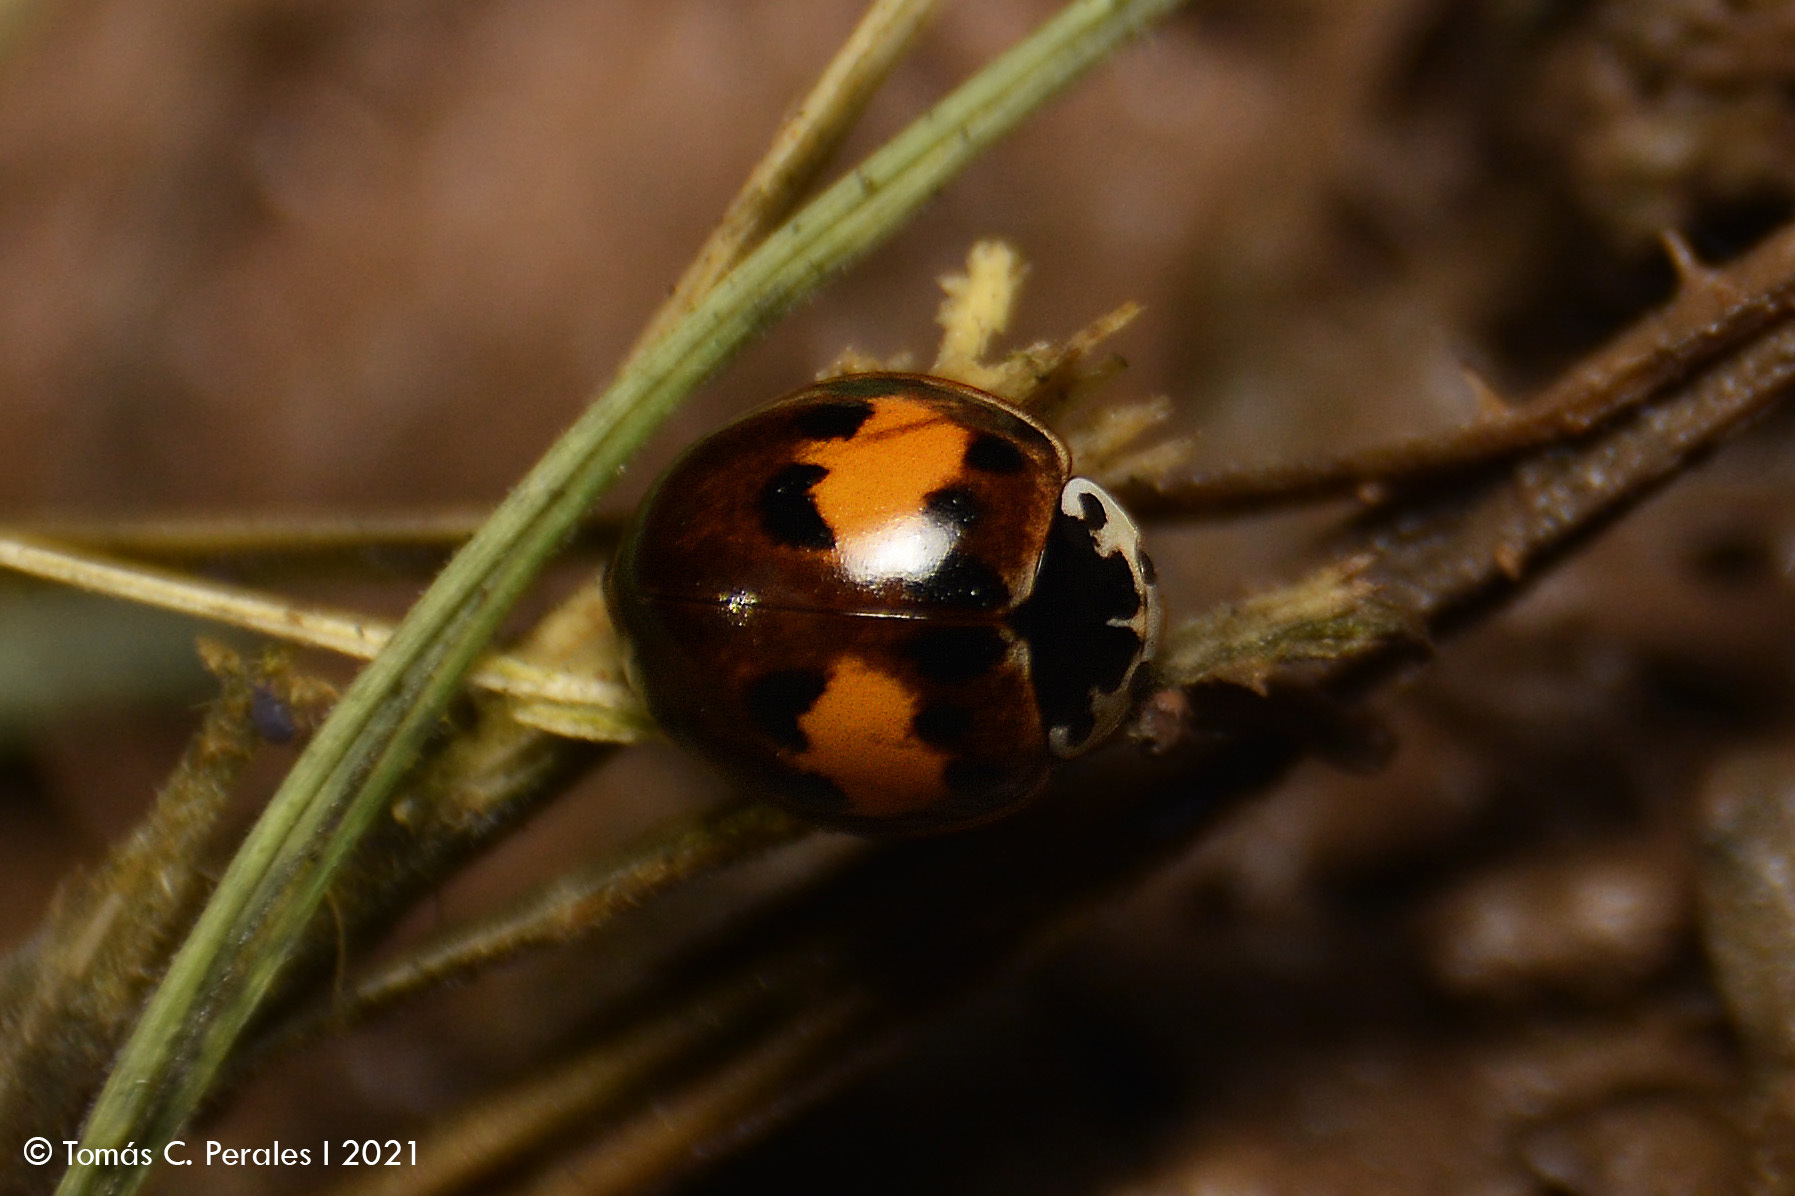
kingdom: Animalia
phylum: Arthropoda
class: Insecta
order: Coleoptera
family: Coccinellidae
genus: Olla
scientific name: Olla v-nigrum
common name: Ashy gray lady beetle
